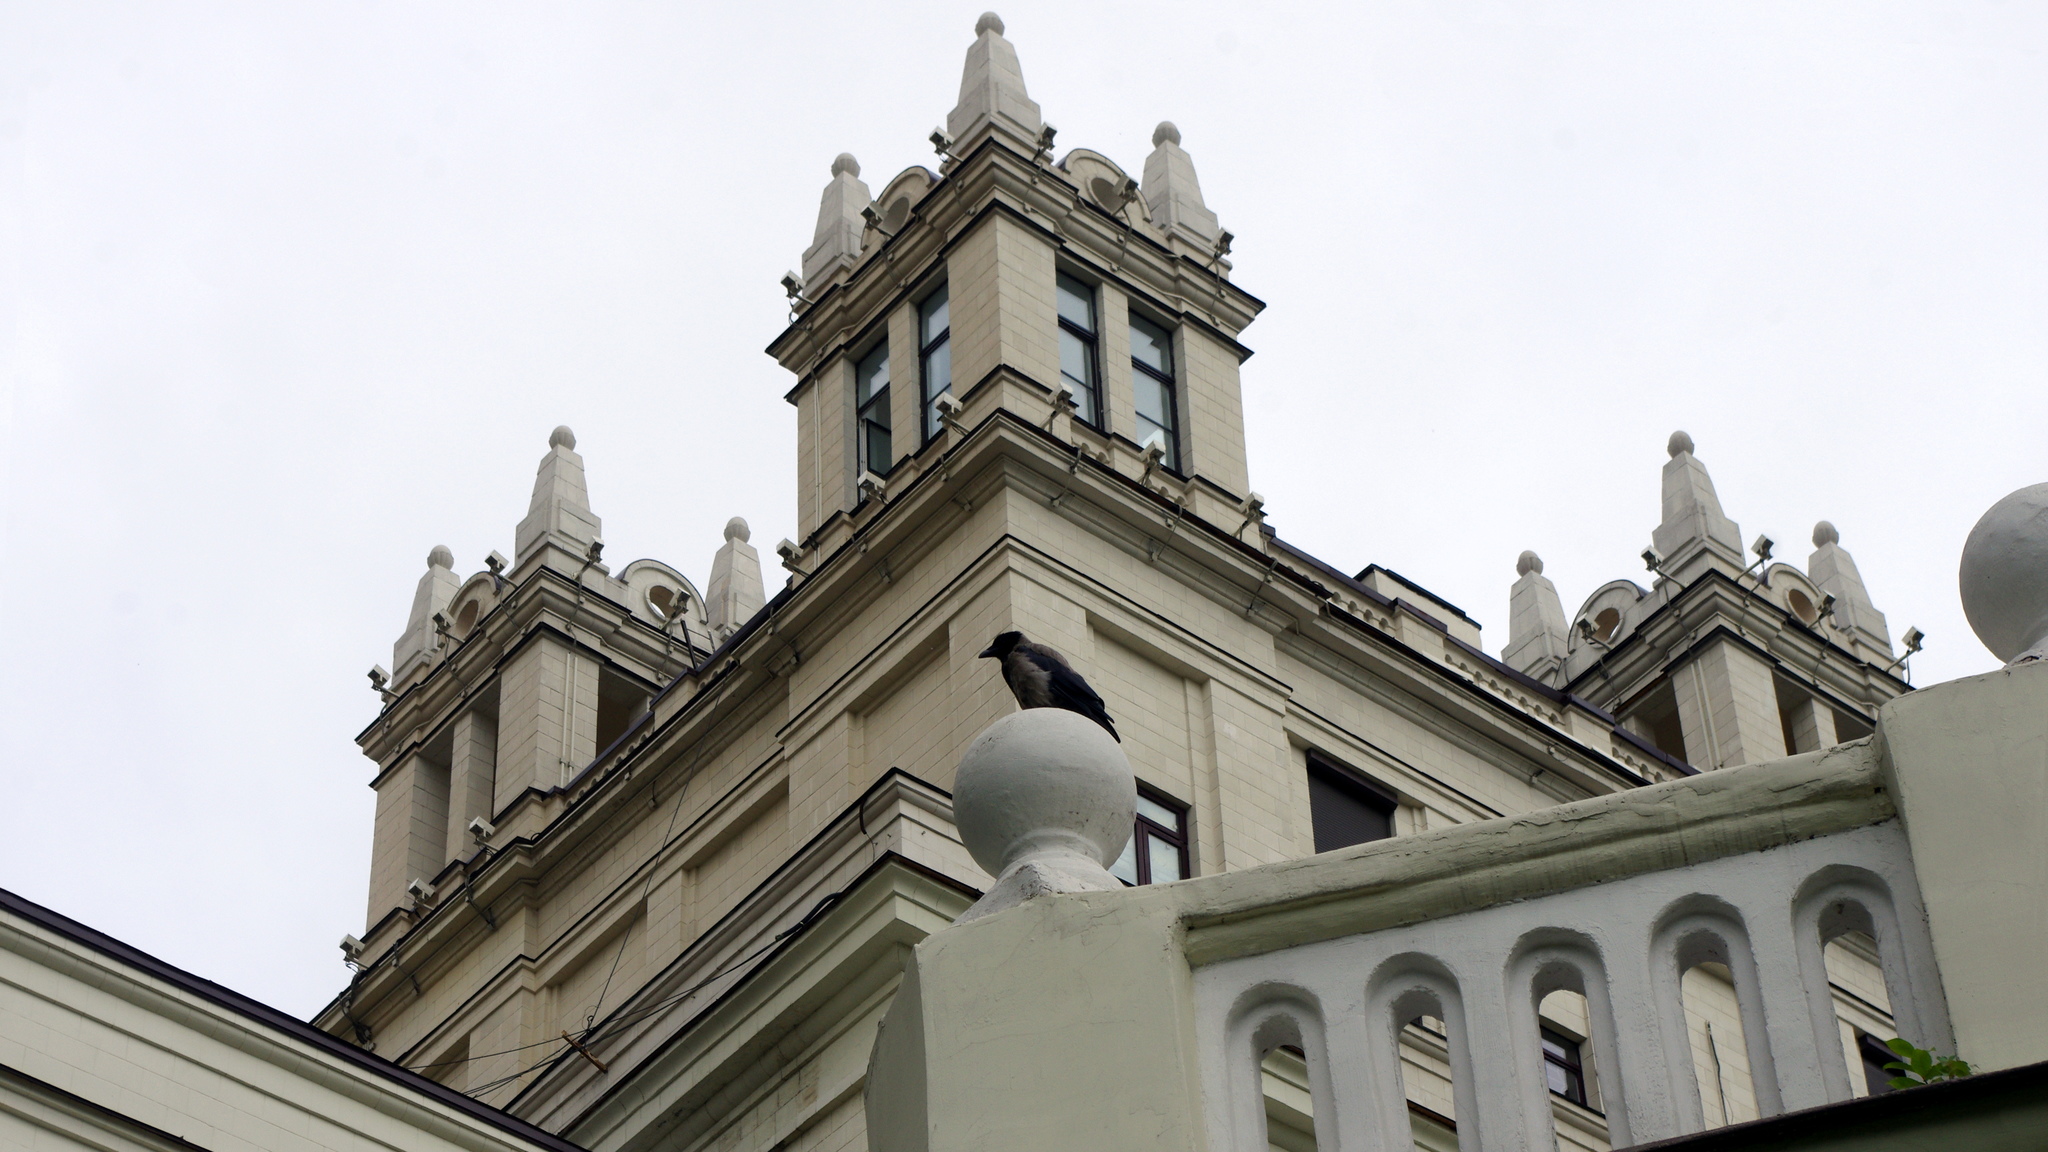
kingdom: Animalia
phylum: Chordata
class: Aves
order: Passeriformes
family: Corvidae
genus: Corvus
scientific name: Corvus cornix
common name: Hooded crow
